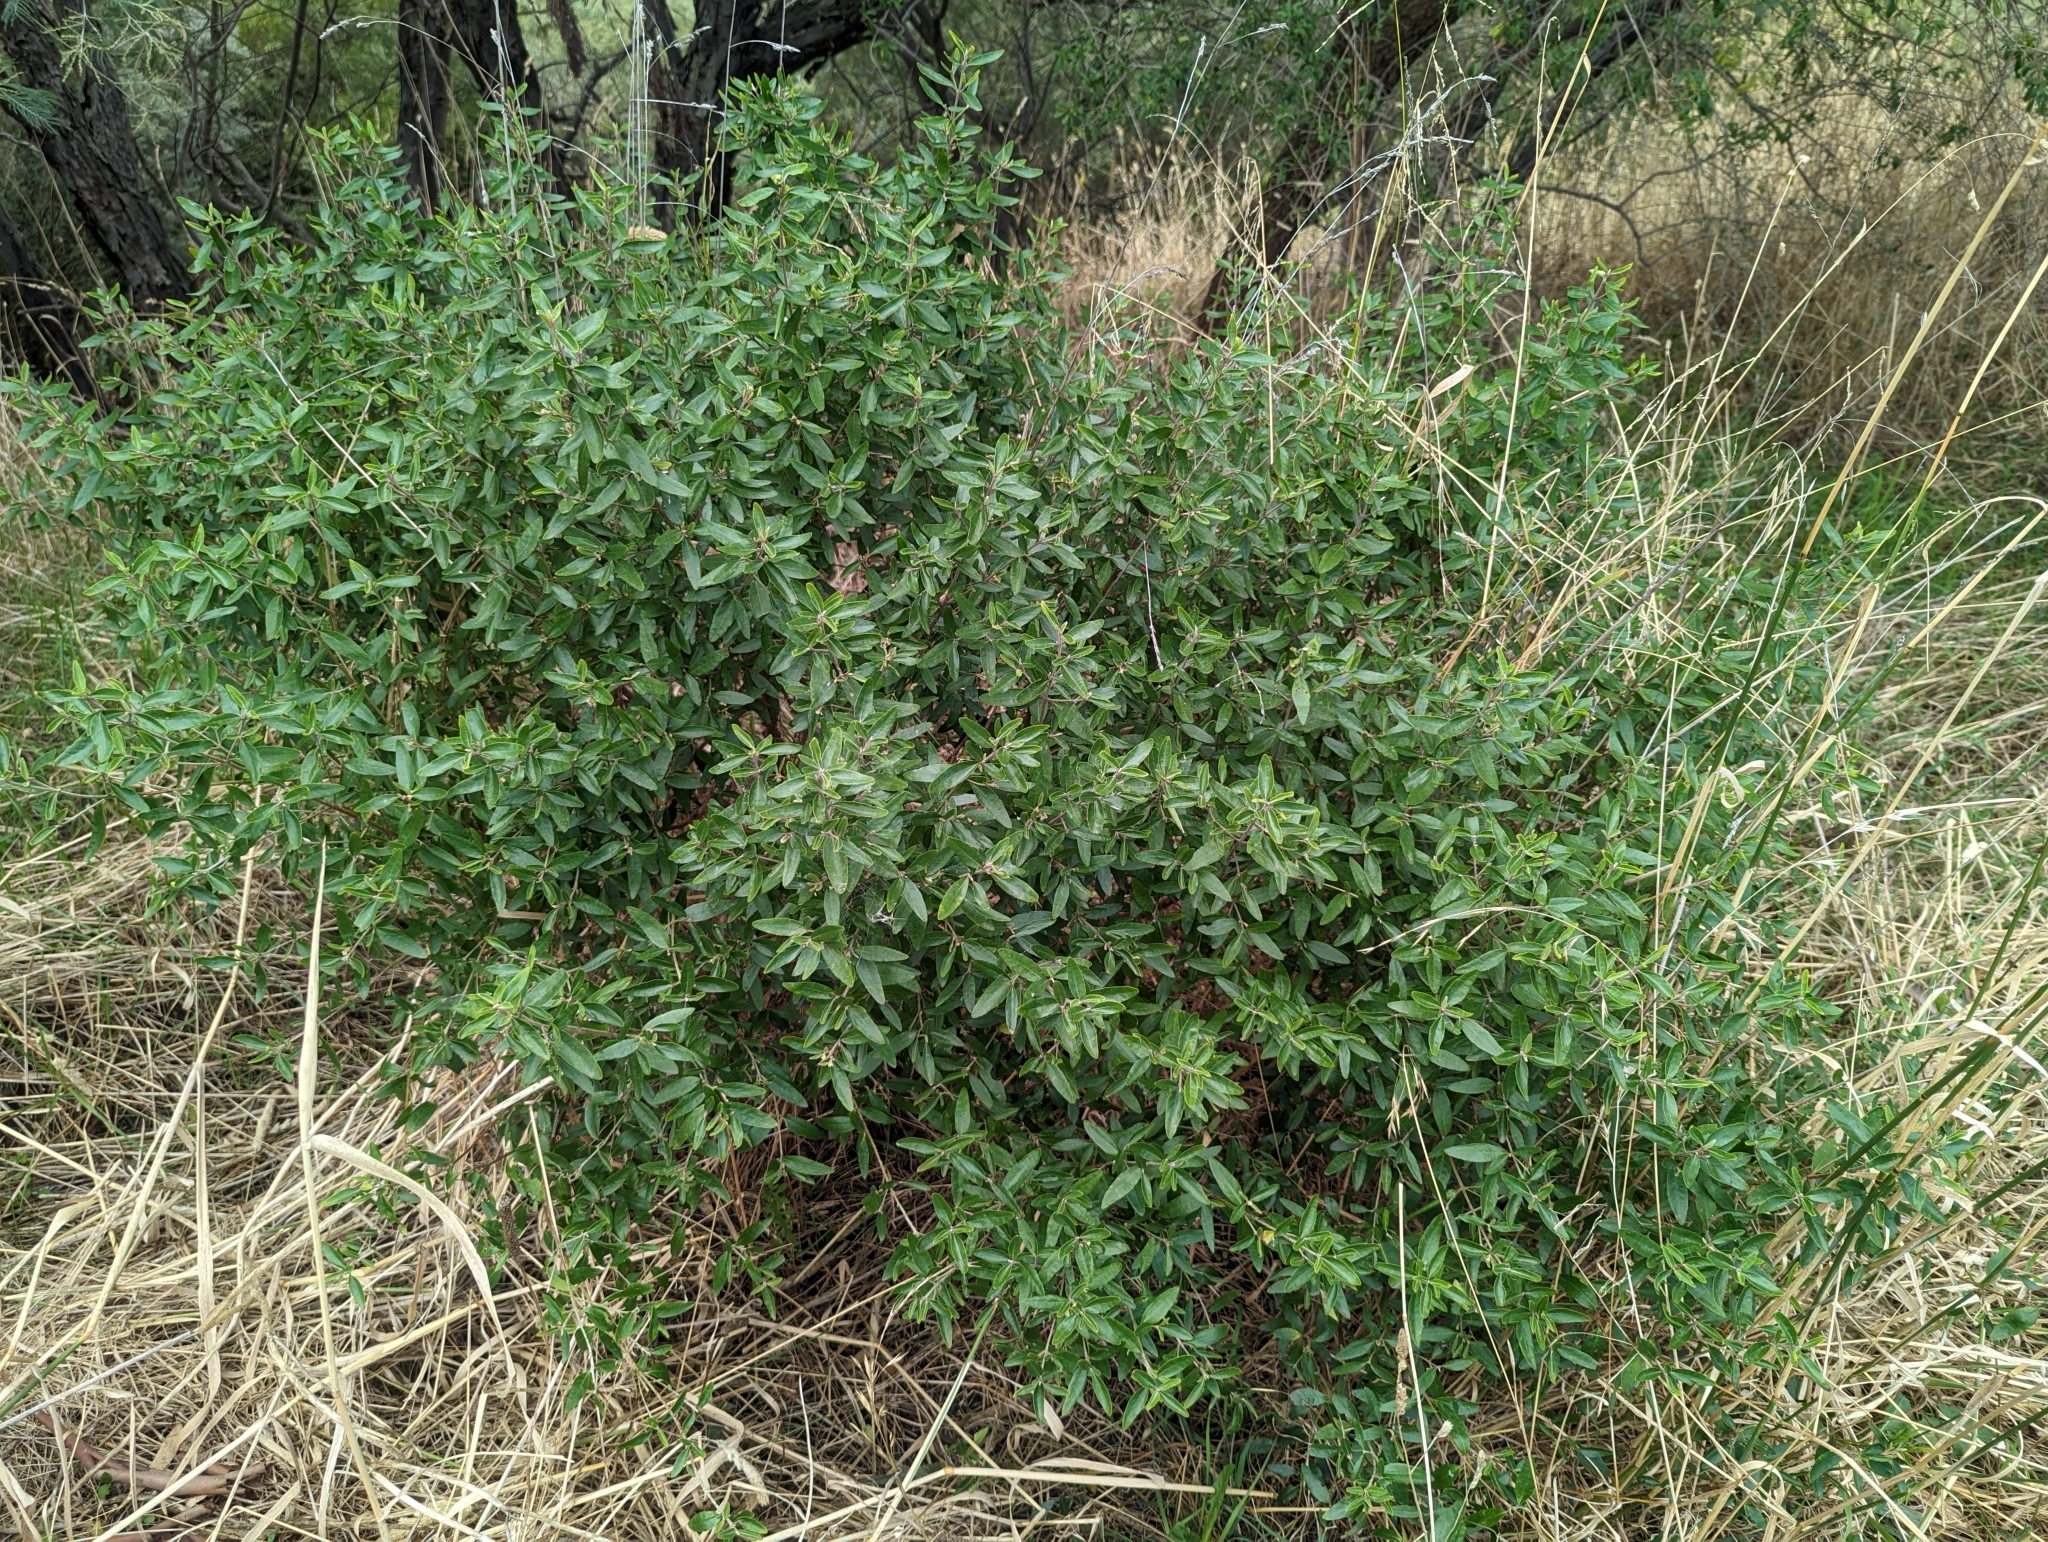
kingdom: Plantae
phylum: Tracheophyta
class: Magnoliopsida
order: Sapindales
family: Rutaceae
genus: Correa
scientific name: Correa glabra
